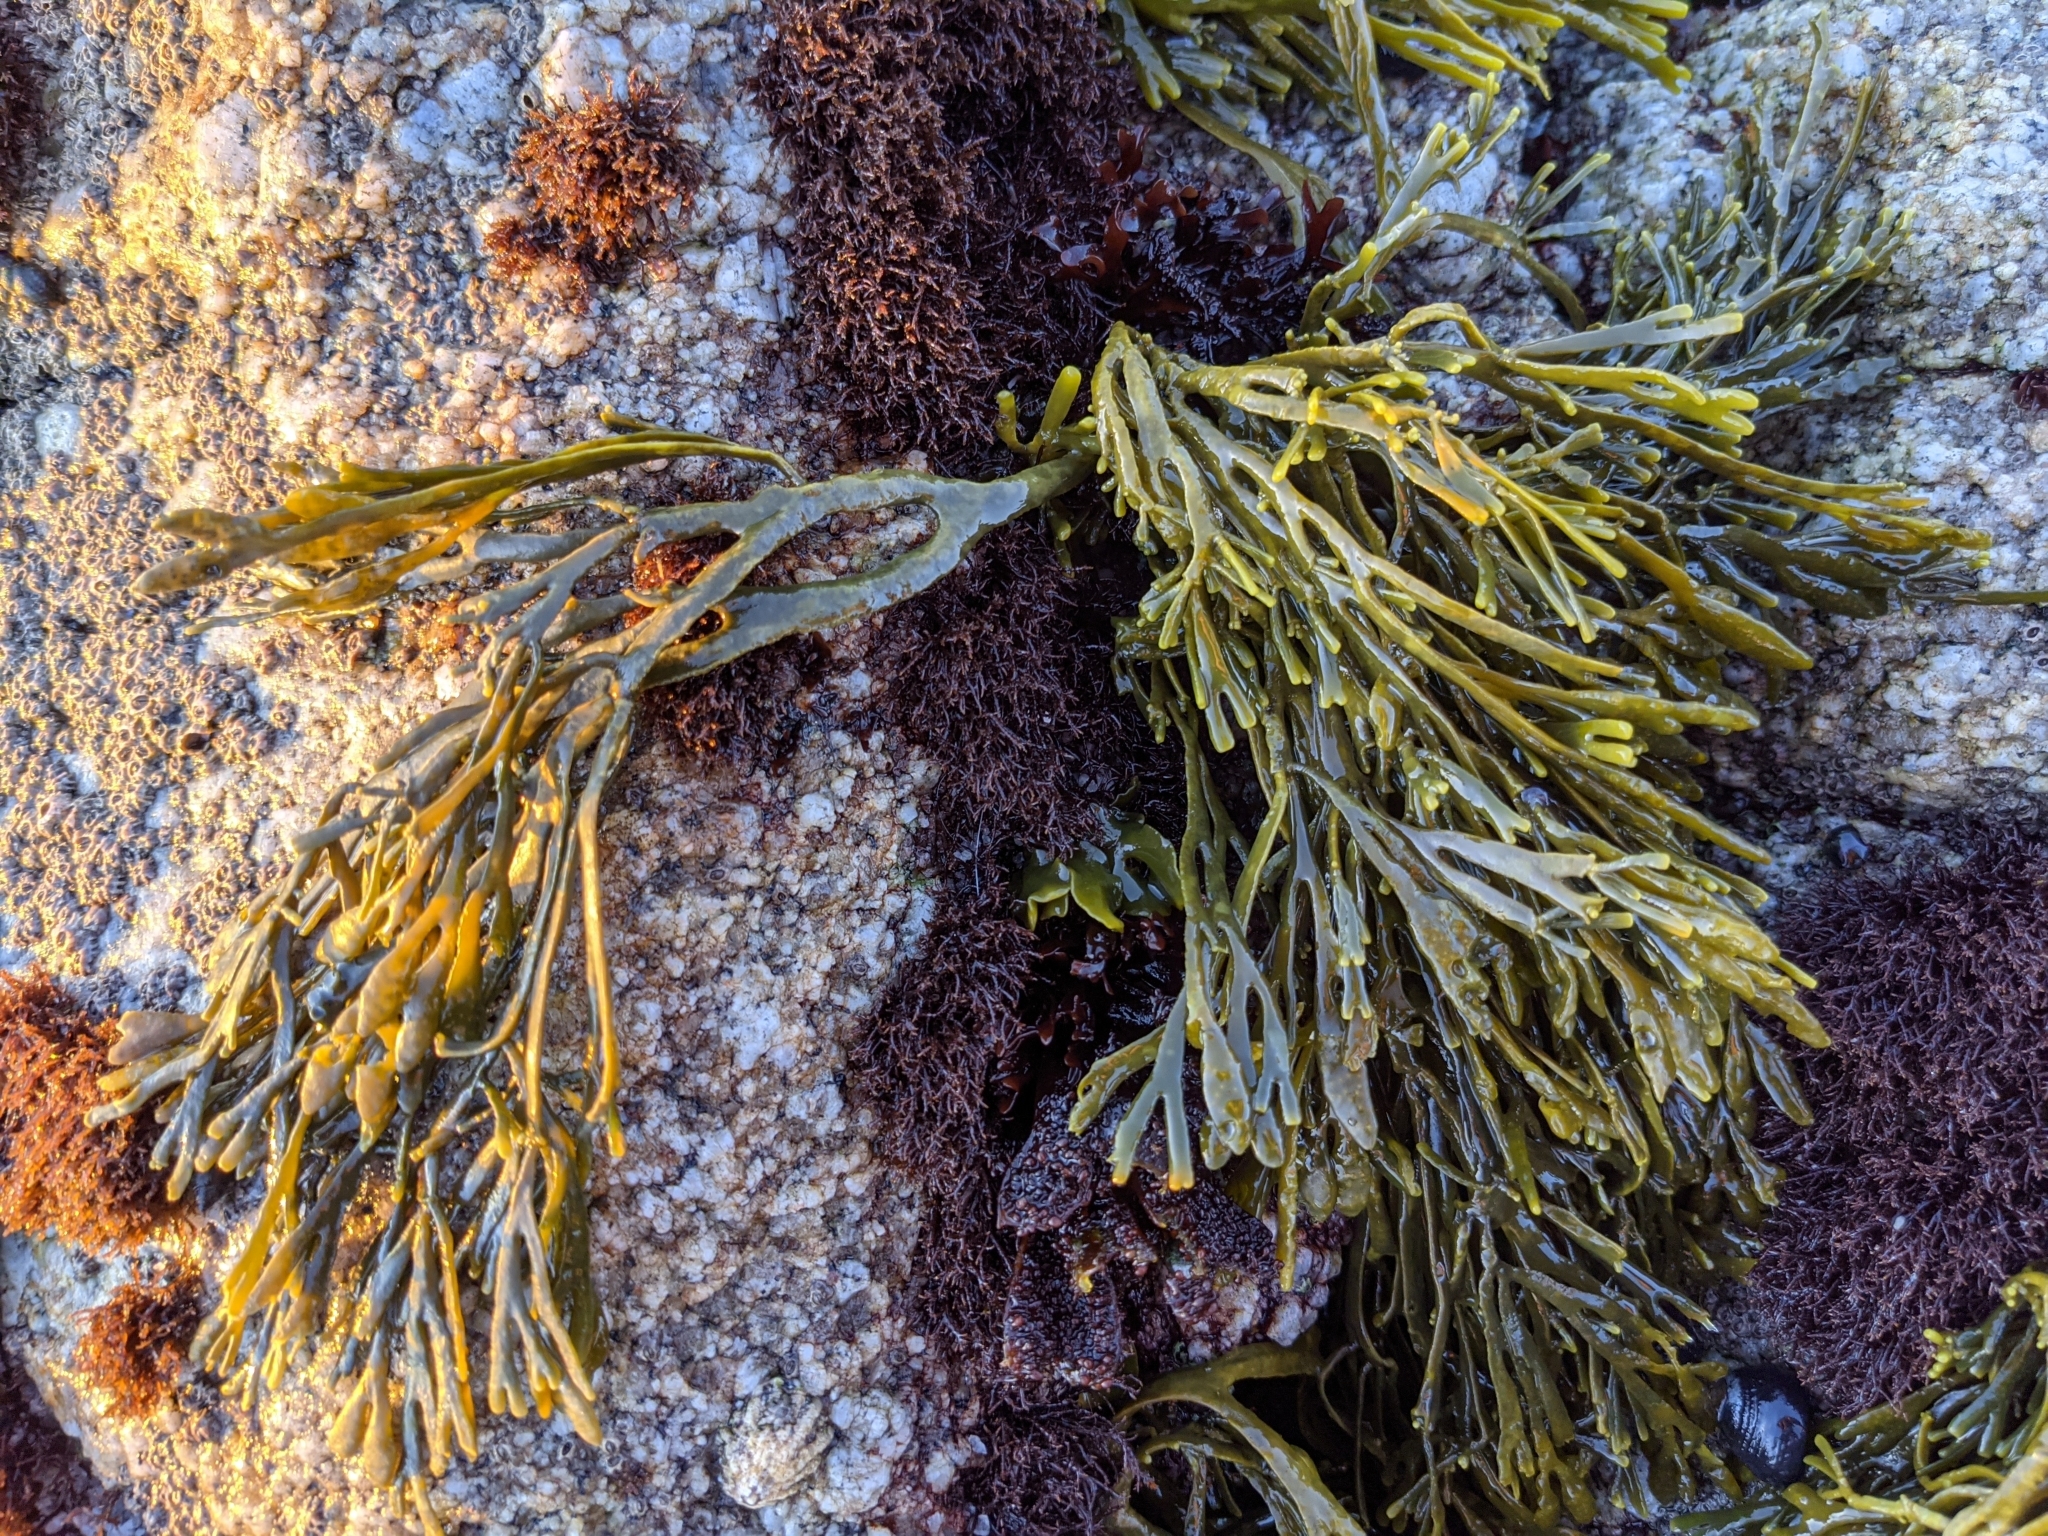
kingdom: Chromista
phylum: Ochrophyta
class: Phaeophyceae
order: Fucales
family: Fucaceae
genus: Silvetia
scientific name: Silvetia
